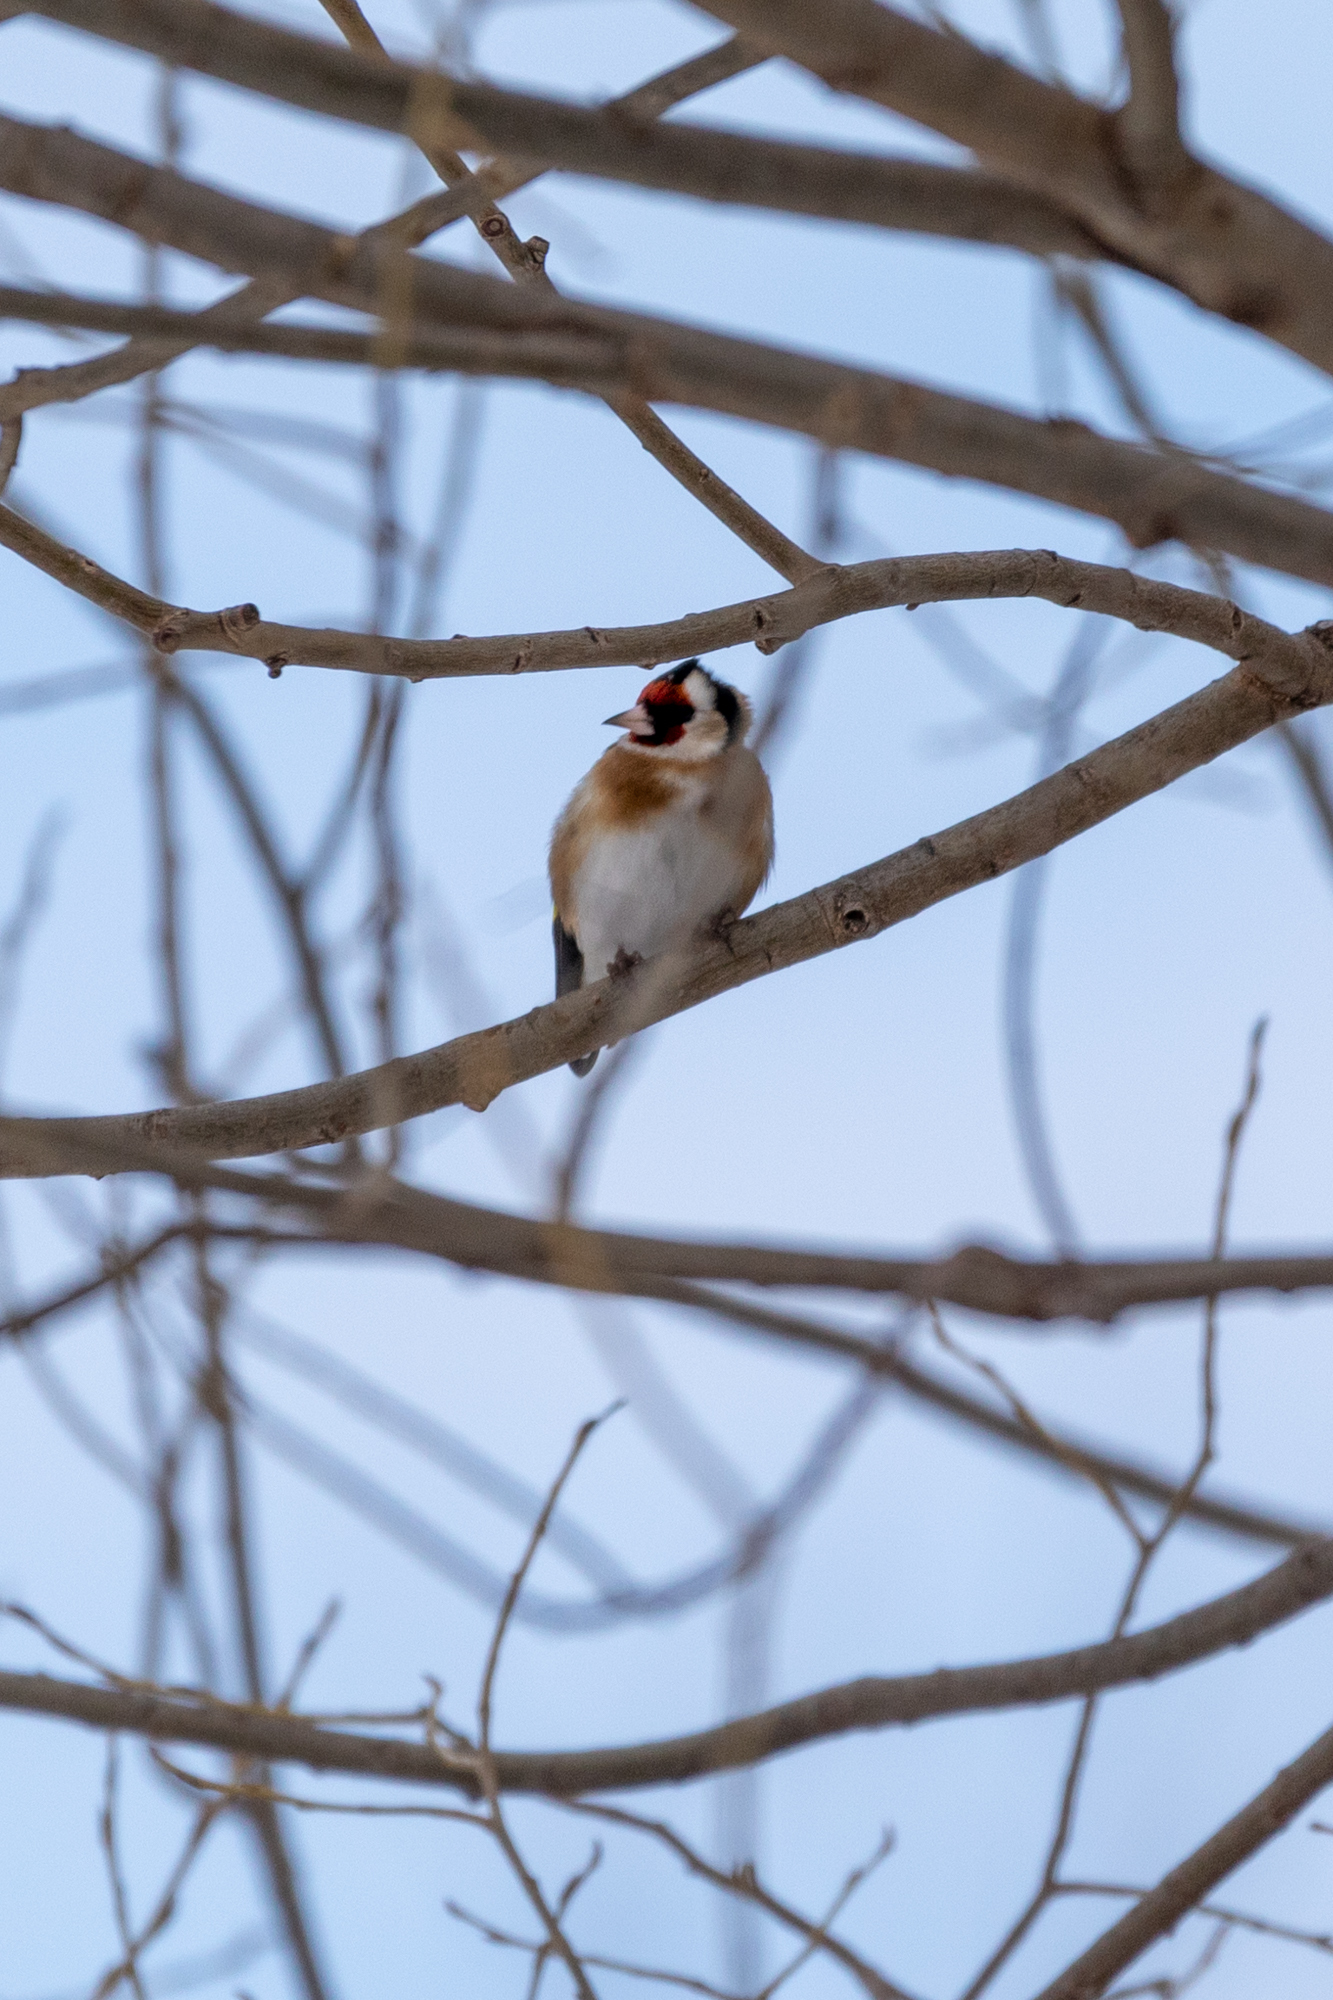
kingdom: Animalia
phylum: Chordata
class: Aves
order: Passeriformes
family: Fringillidae
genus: Carduelis
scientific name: Carduelis carduelis
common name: European goldfinch
